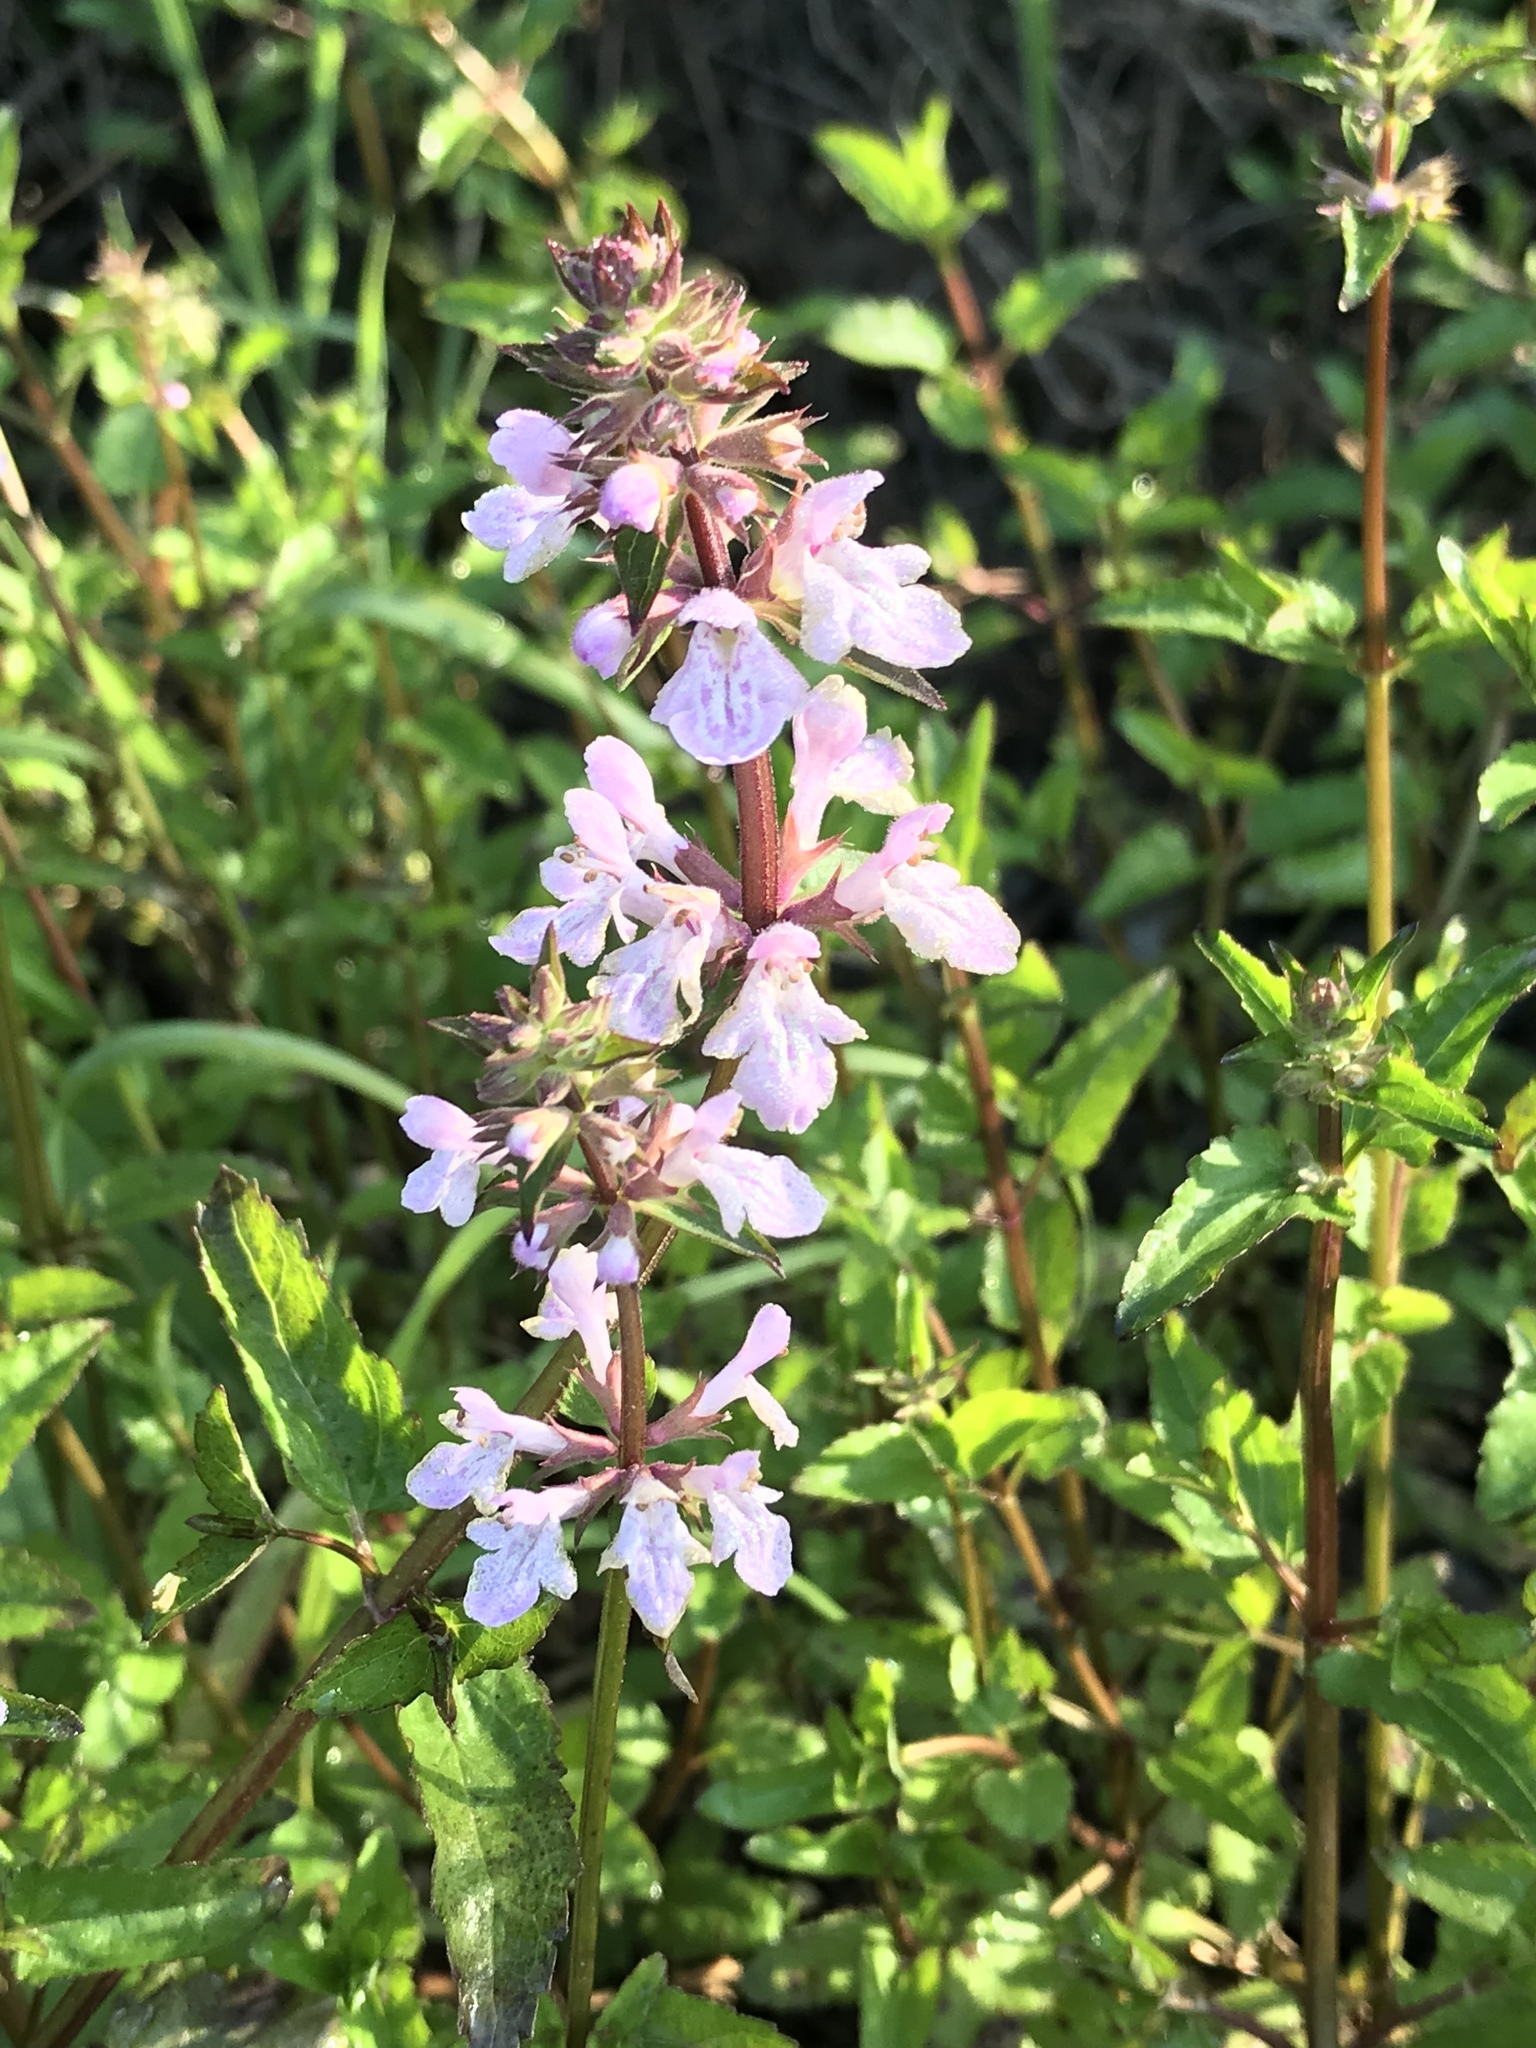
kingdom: Plantae
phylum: Tracheophyta
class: Magnoliopsida
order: Lamiales
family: Lamiaceae
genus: Stachys
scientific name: Stachys floridana
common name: Florida betony
